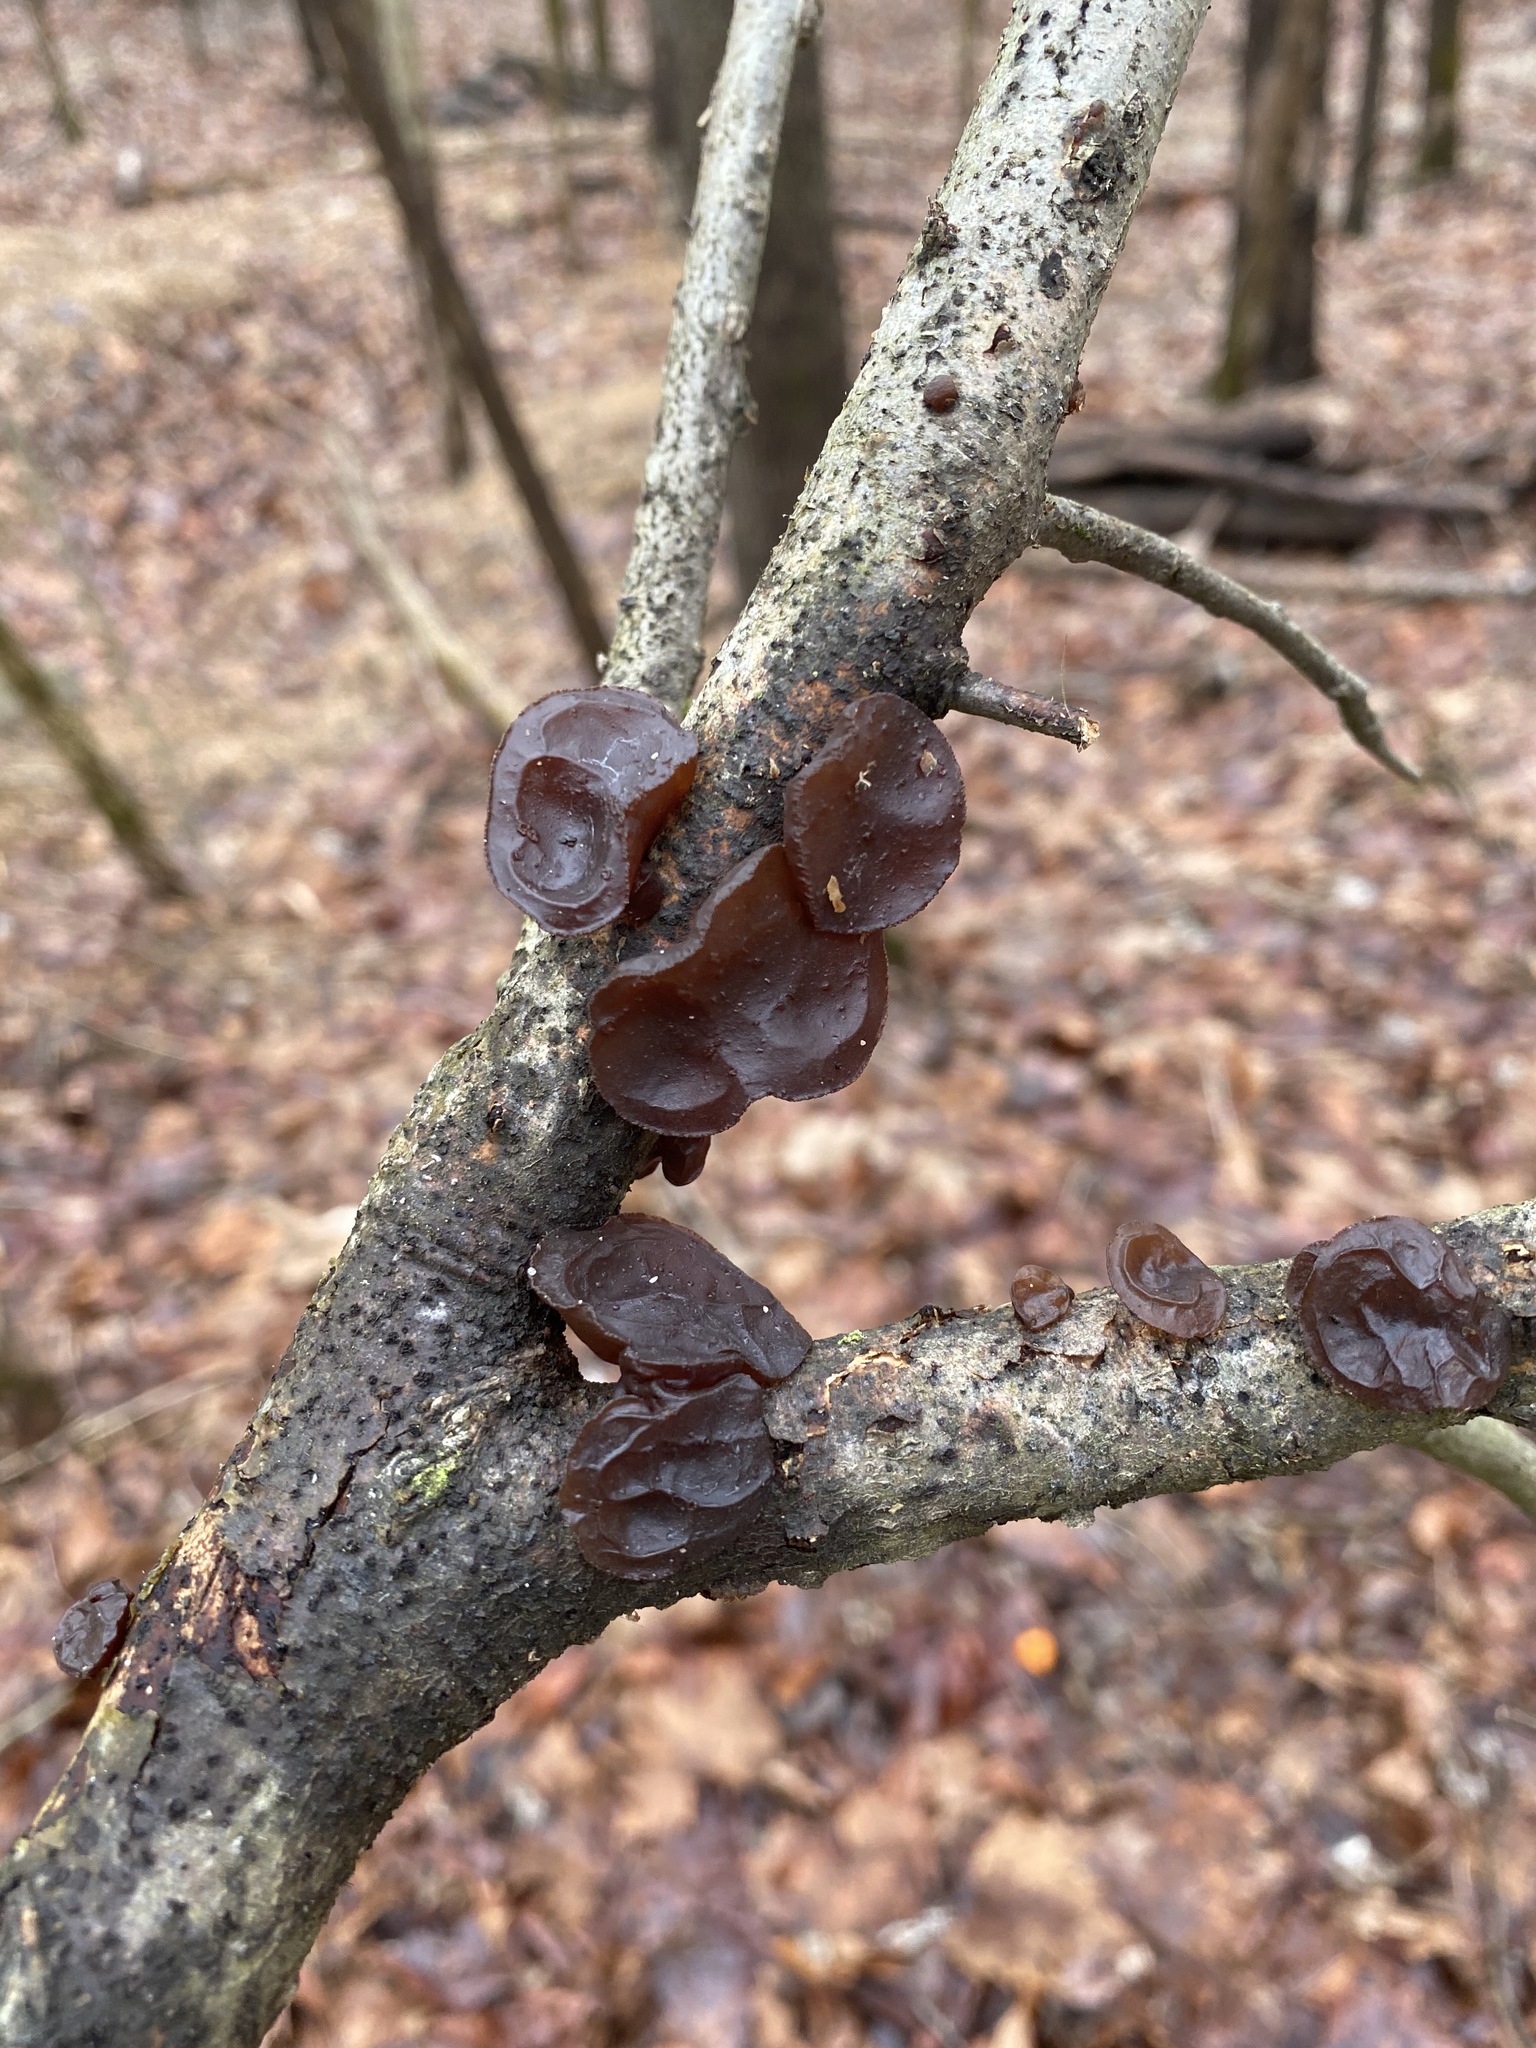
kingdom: Fungi
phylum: Basidiomycota
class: Agaricomycetes
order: Auriculariales
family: Auriculariaceae
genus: Exidia
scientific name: Exidia
